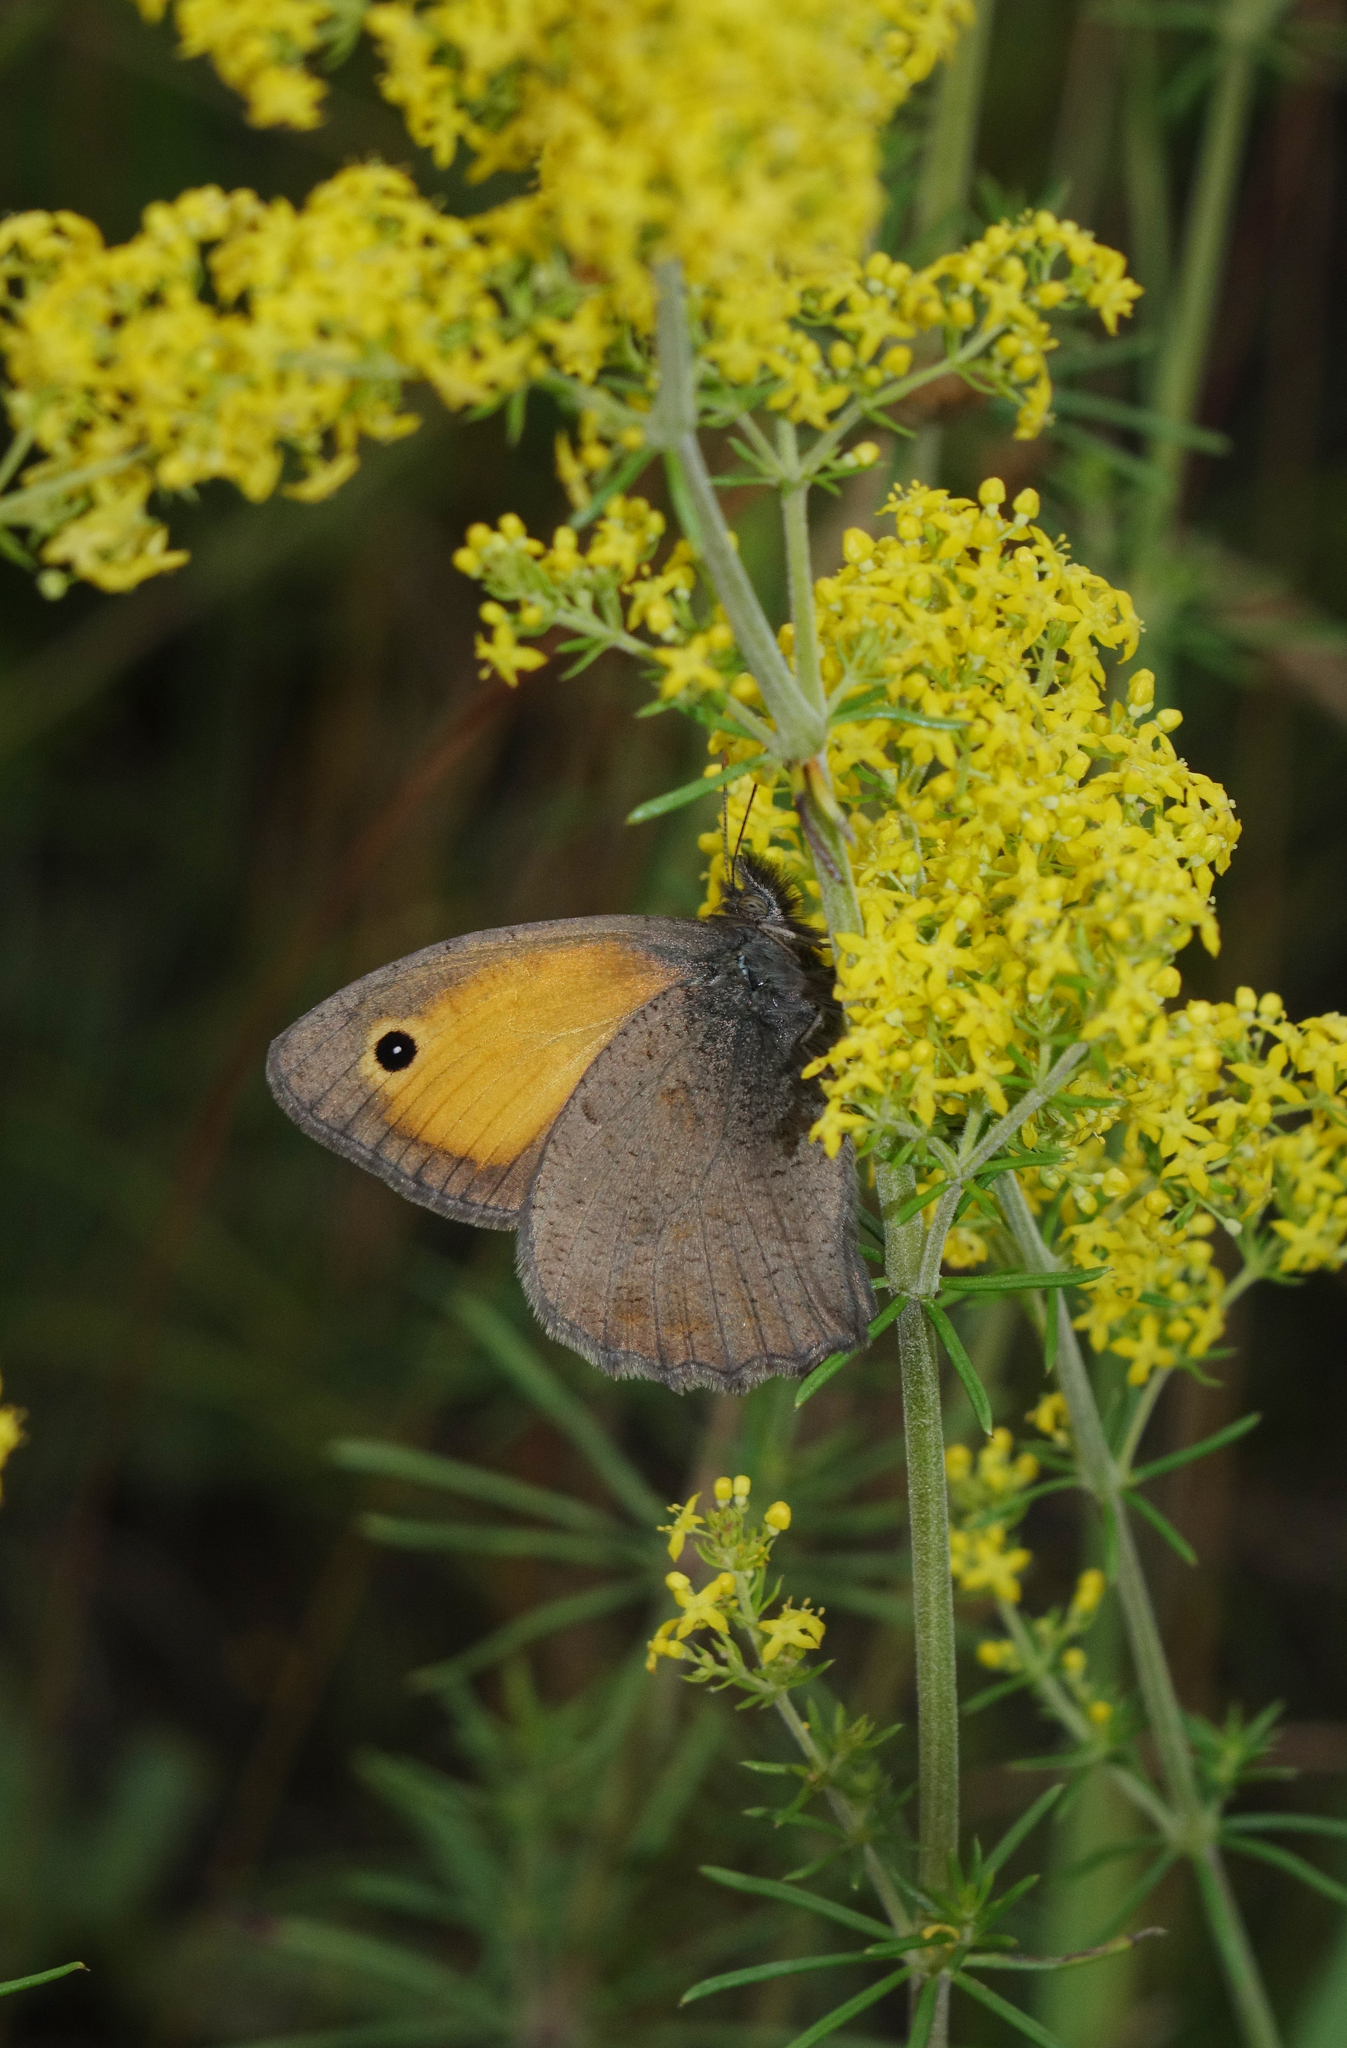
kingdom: Plantae
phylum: Tracheophyta
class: Magnoliopsida
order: Gentianales
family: Rubiaceae
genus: Galium
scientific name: Galium verum
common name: Lady's bedstraw
